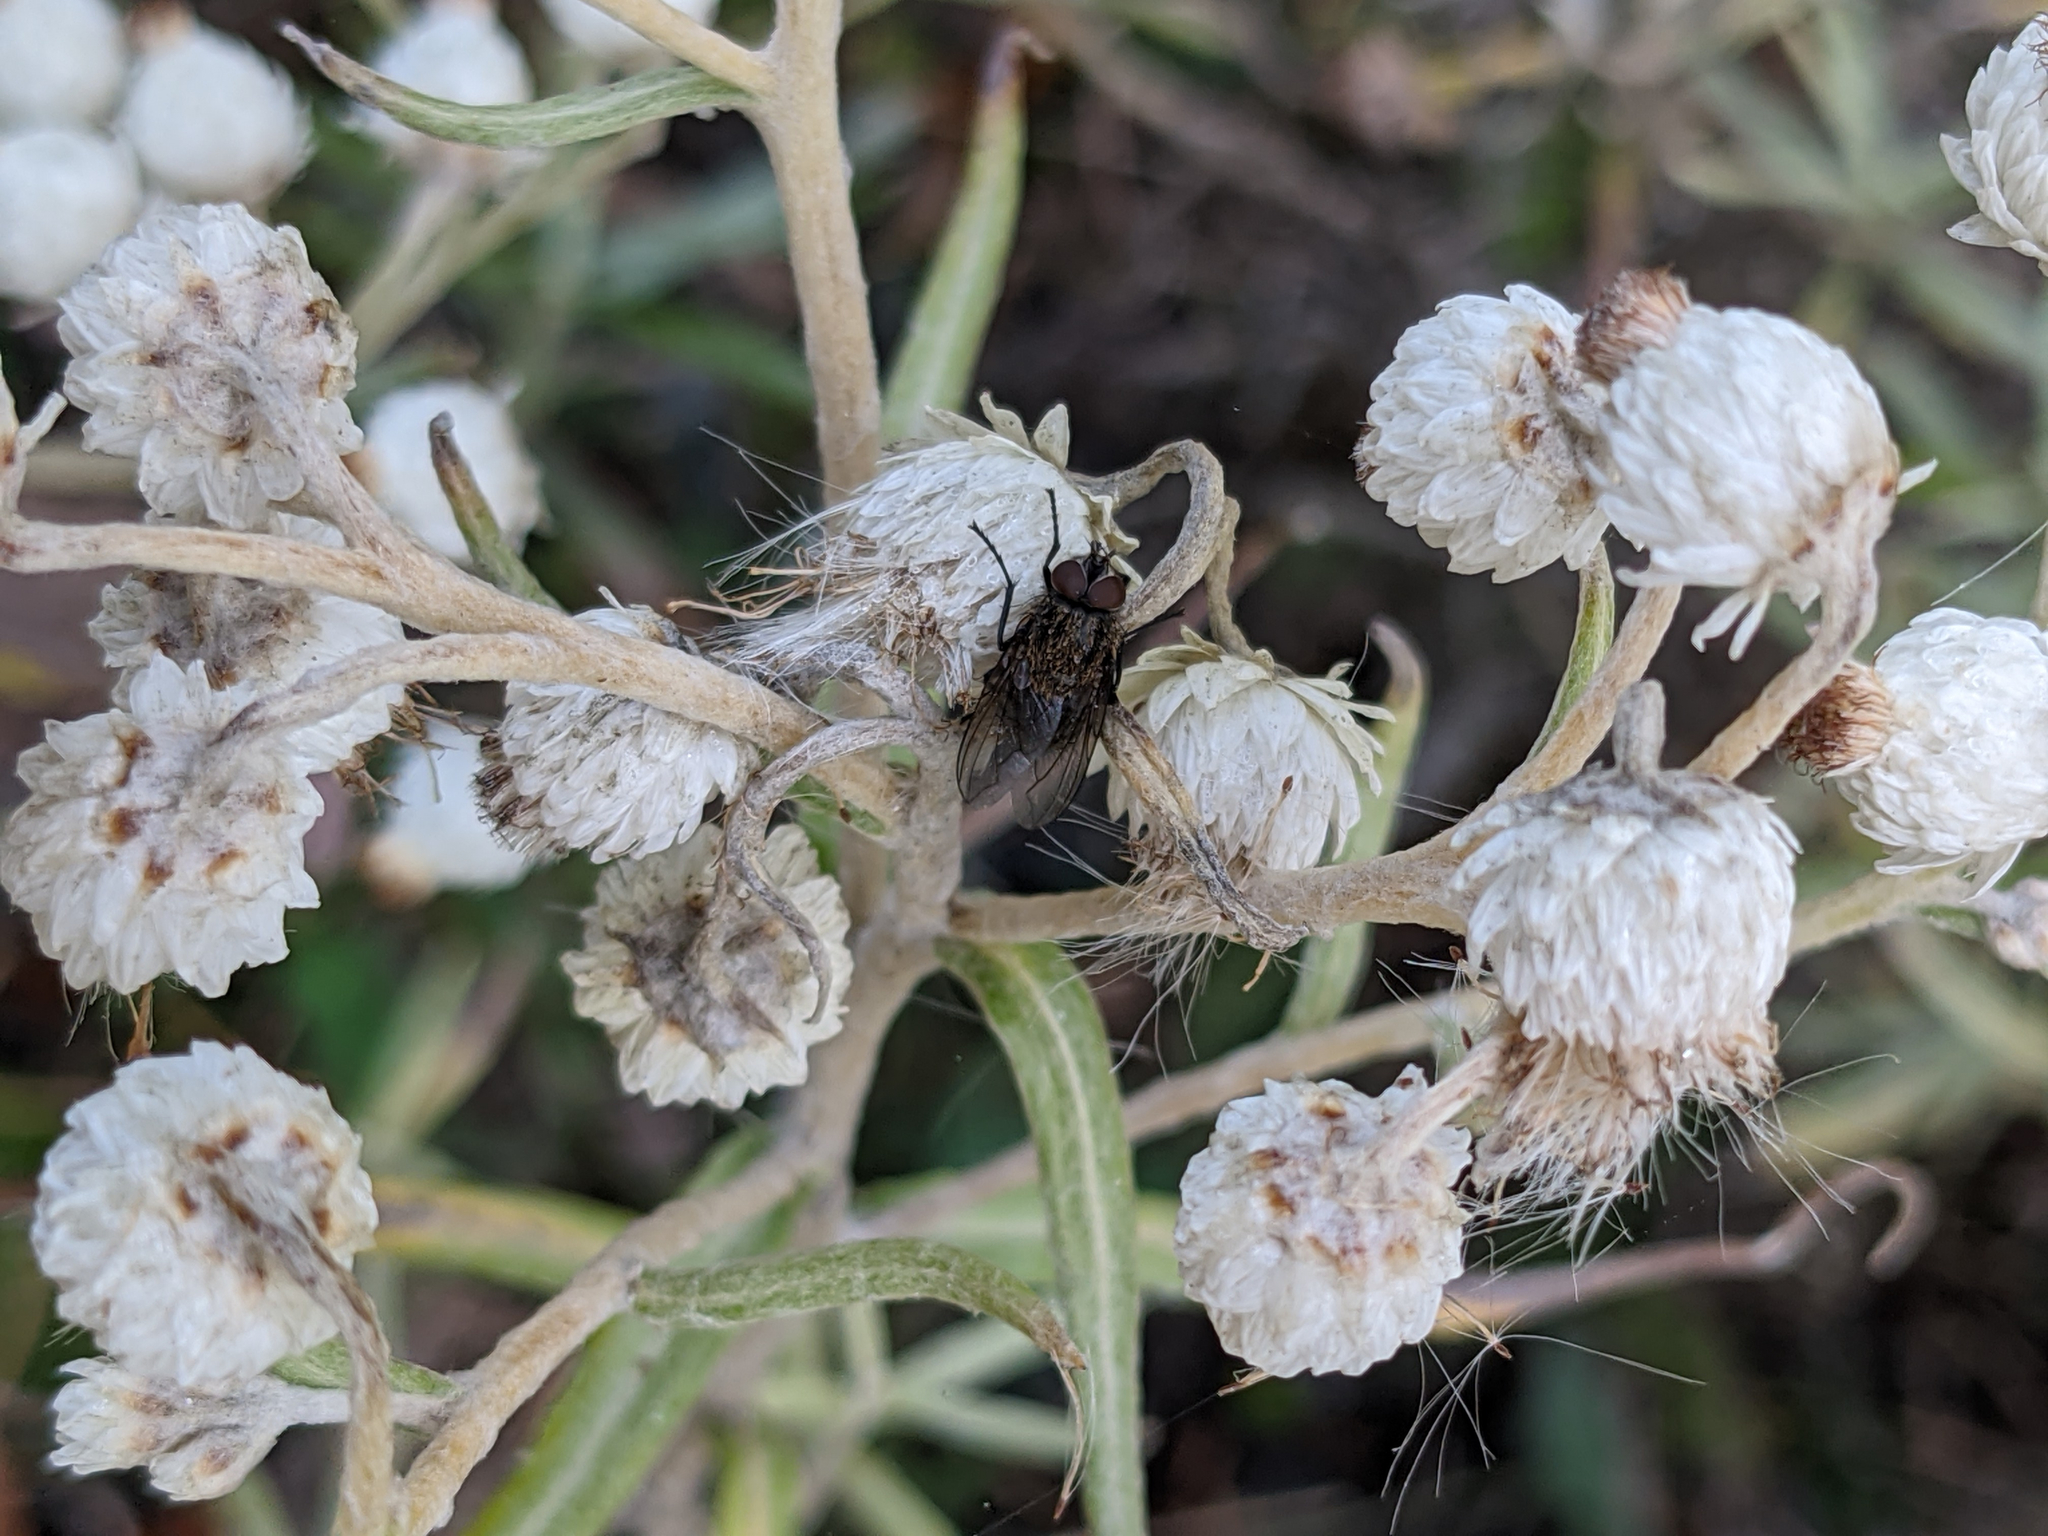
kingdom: Plantae
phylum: Tracheophyta
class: Magnoliopsida
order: Asterales
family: Asteraceae
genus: Anaphalis
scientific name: Anaphalis margaritacea
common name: Pearly everlasting
